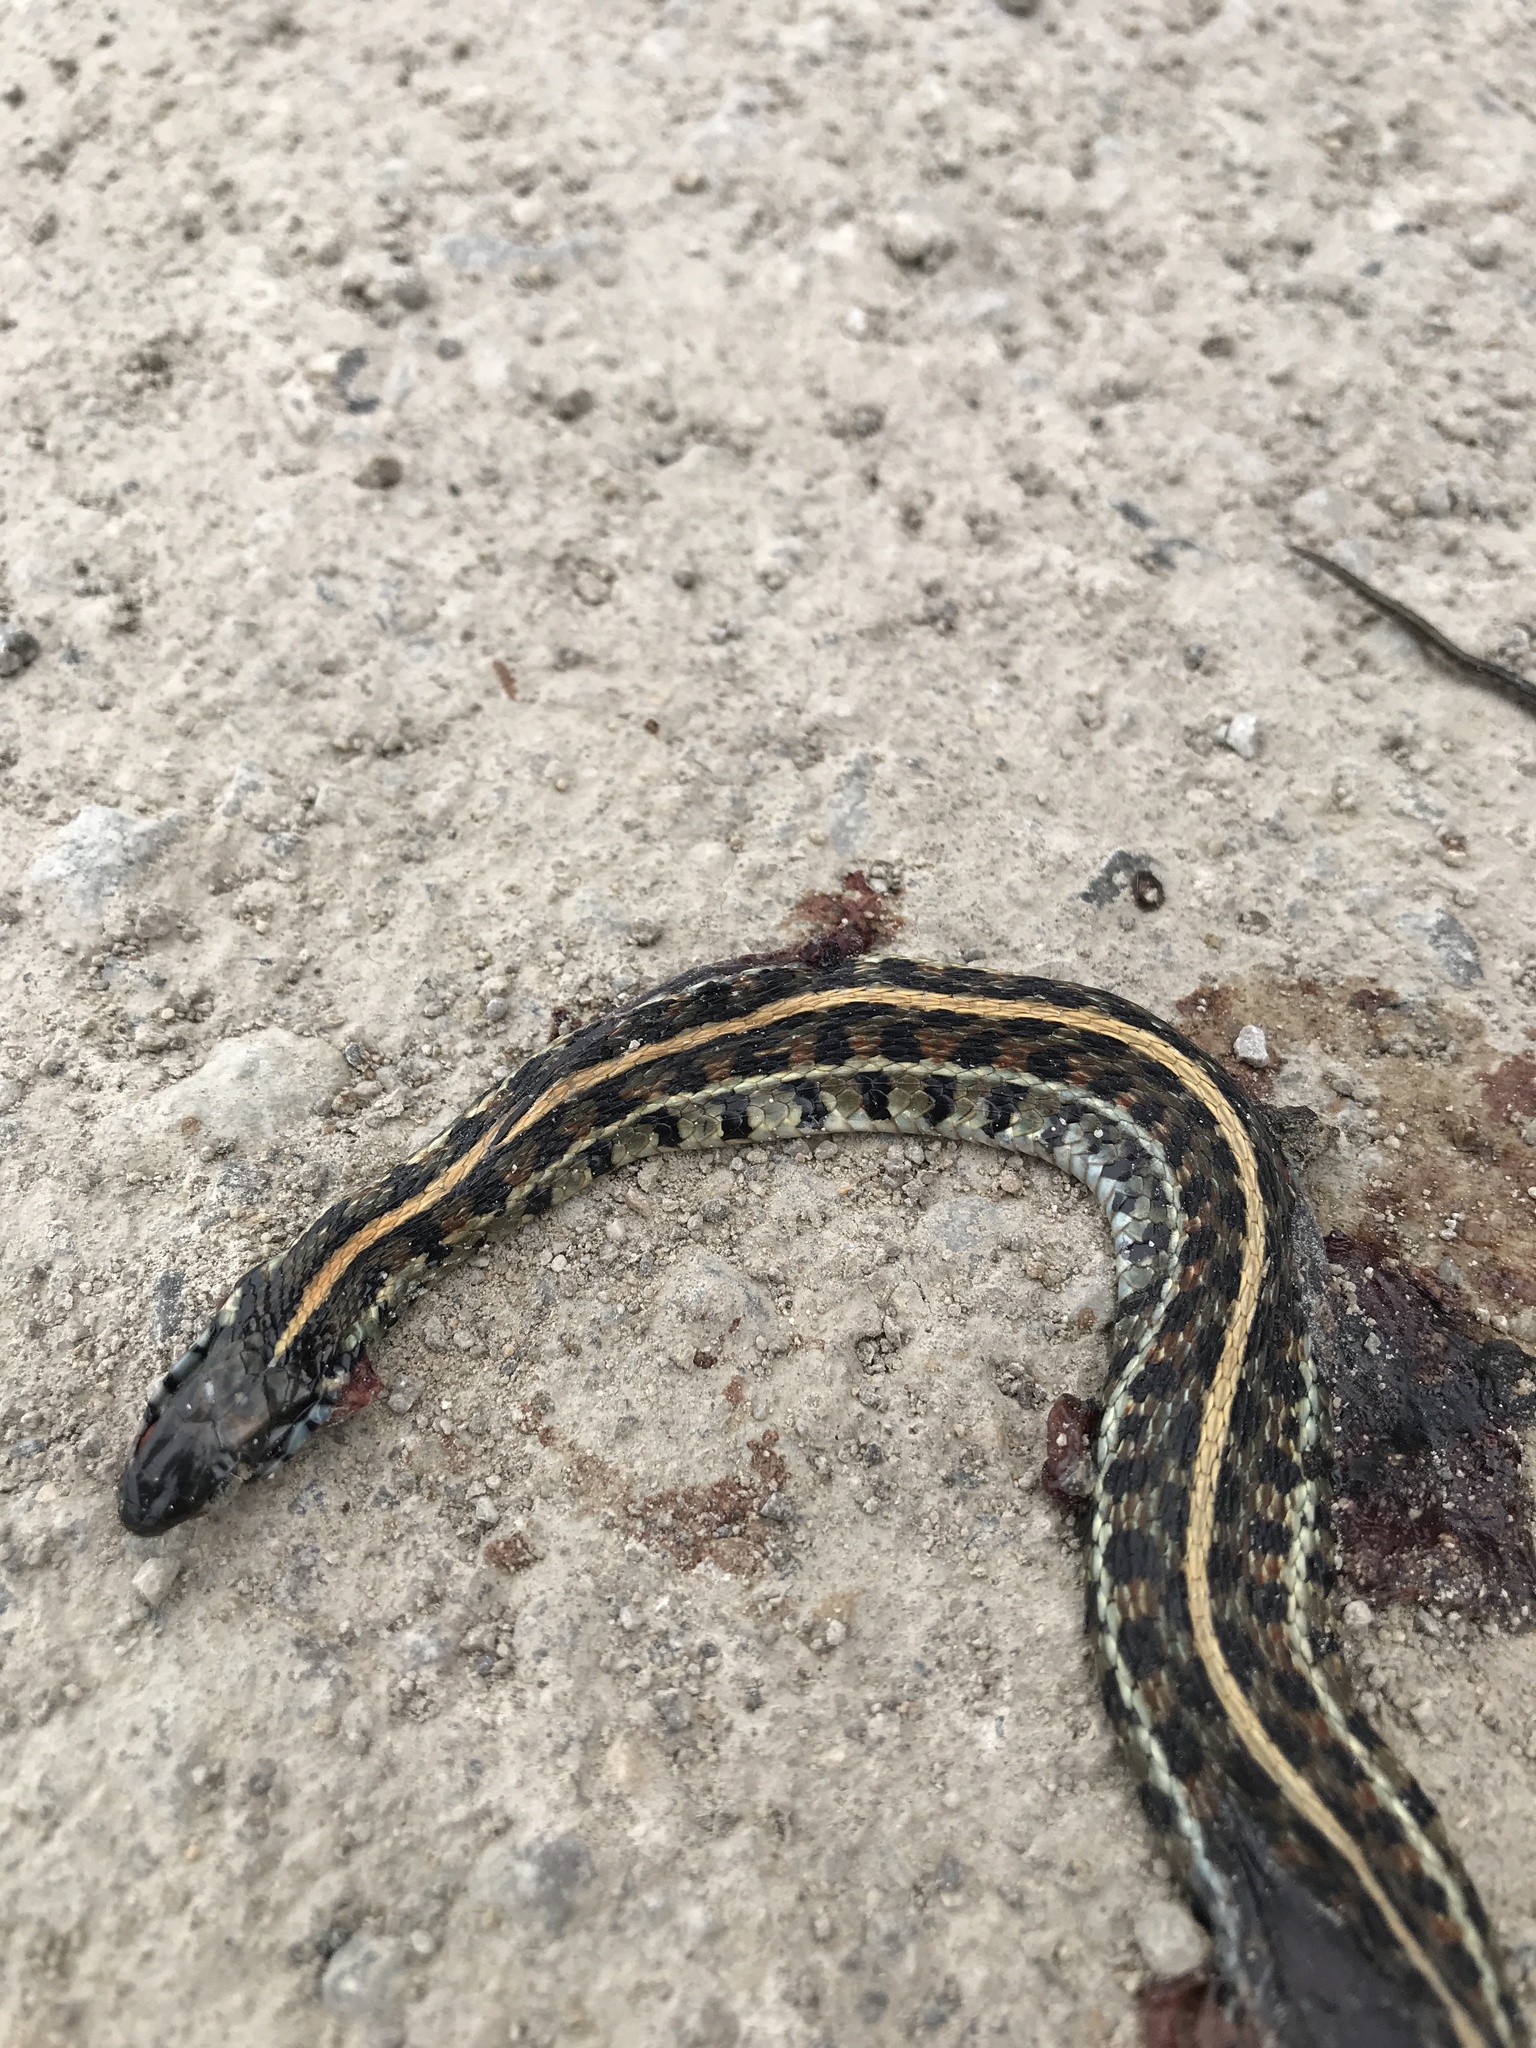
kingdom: Animalia
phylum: Chordata
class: Squamata
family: Colubridae
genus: Thamnophis
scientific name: Thamnophis radix
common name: Plains garter snake
